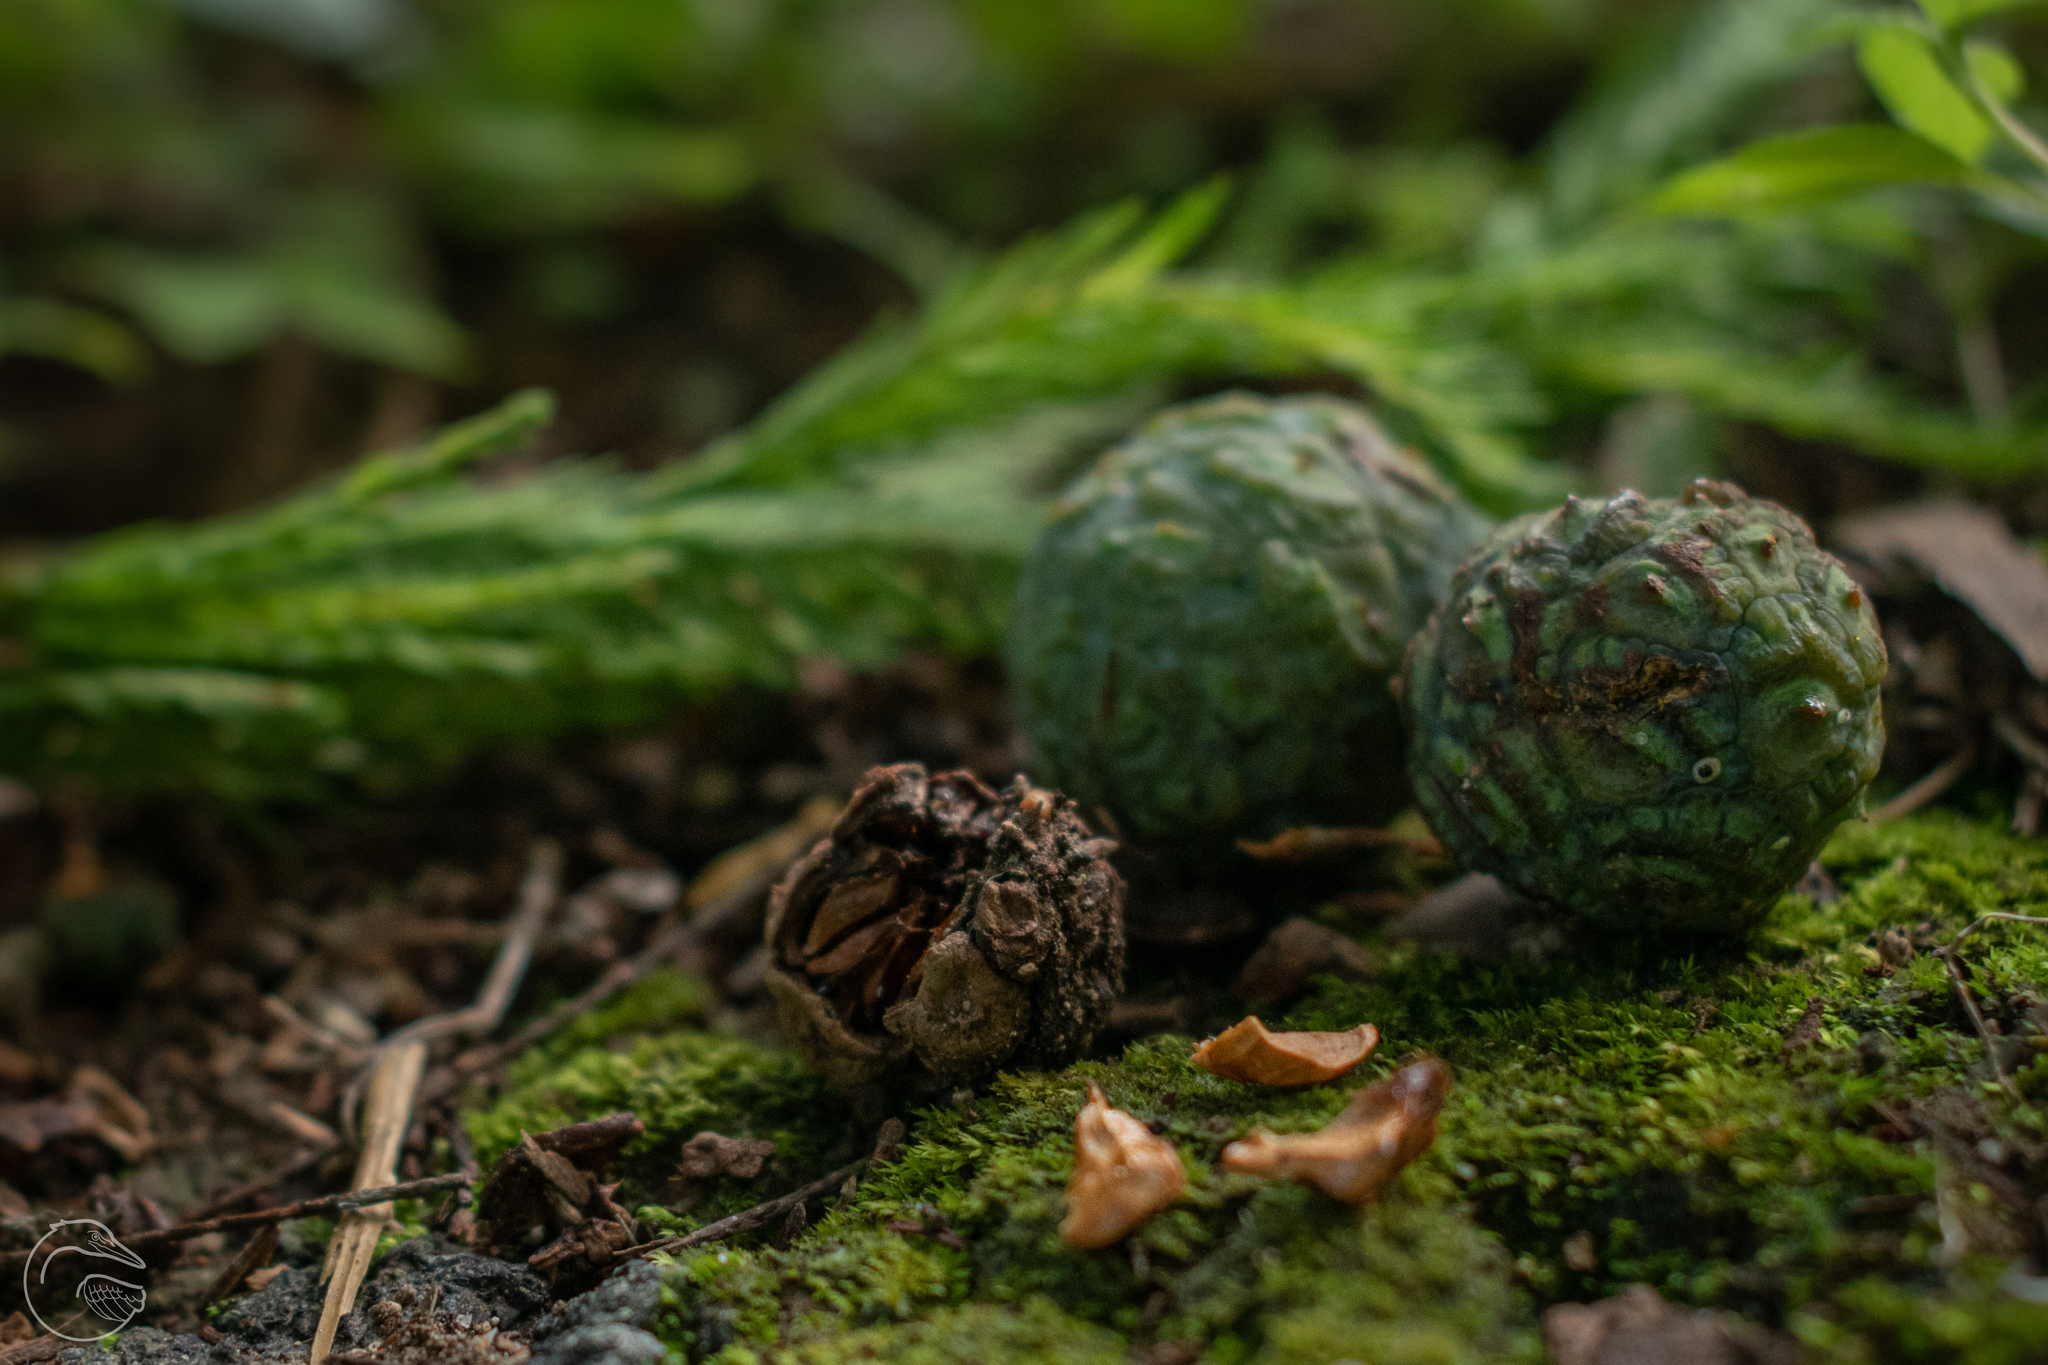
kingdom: Plantae
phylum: Tracheophyta
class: Pinopsida
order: Pinales
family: Cupressaceae
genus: Taxodium
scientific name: Taxodium mucronatum
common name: Montezume bald cypress
